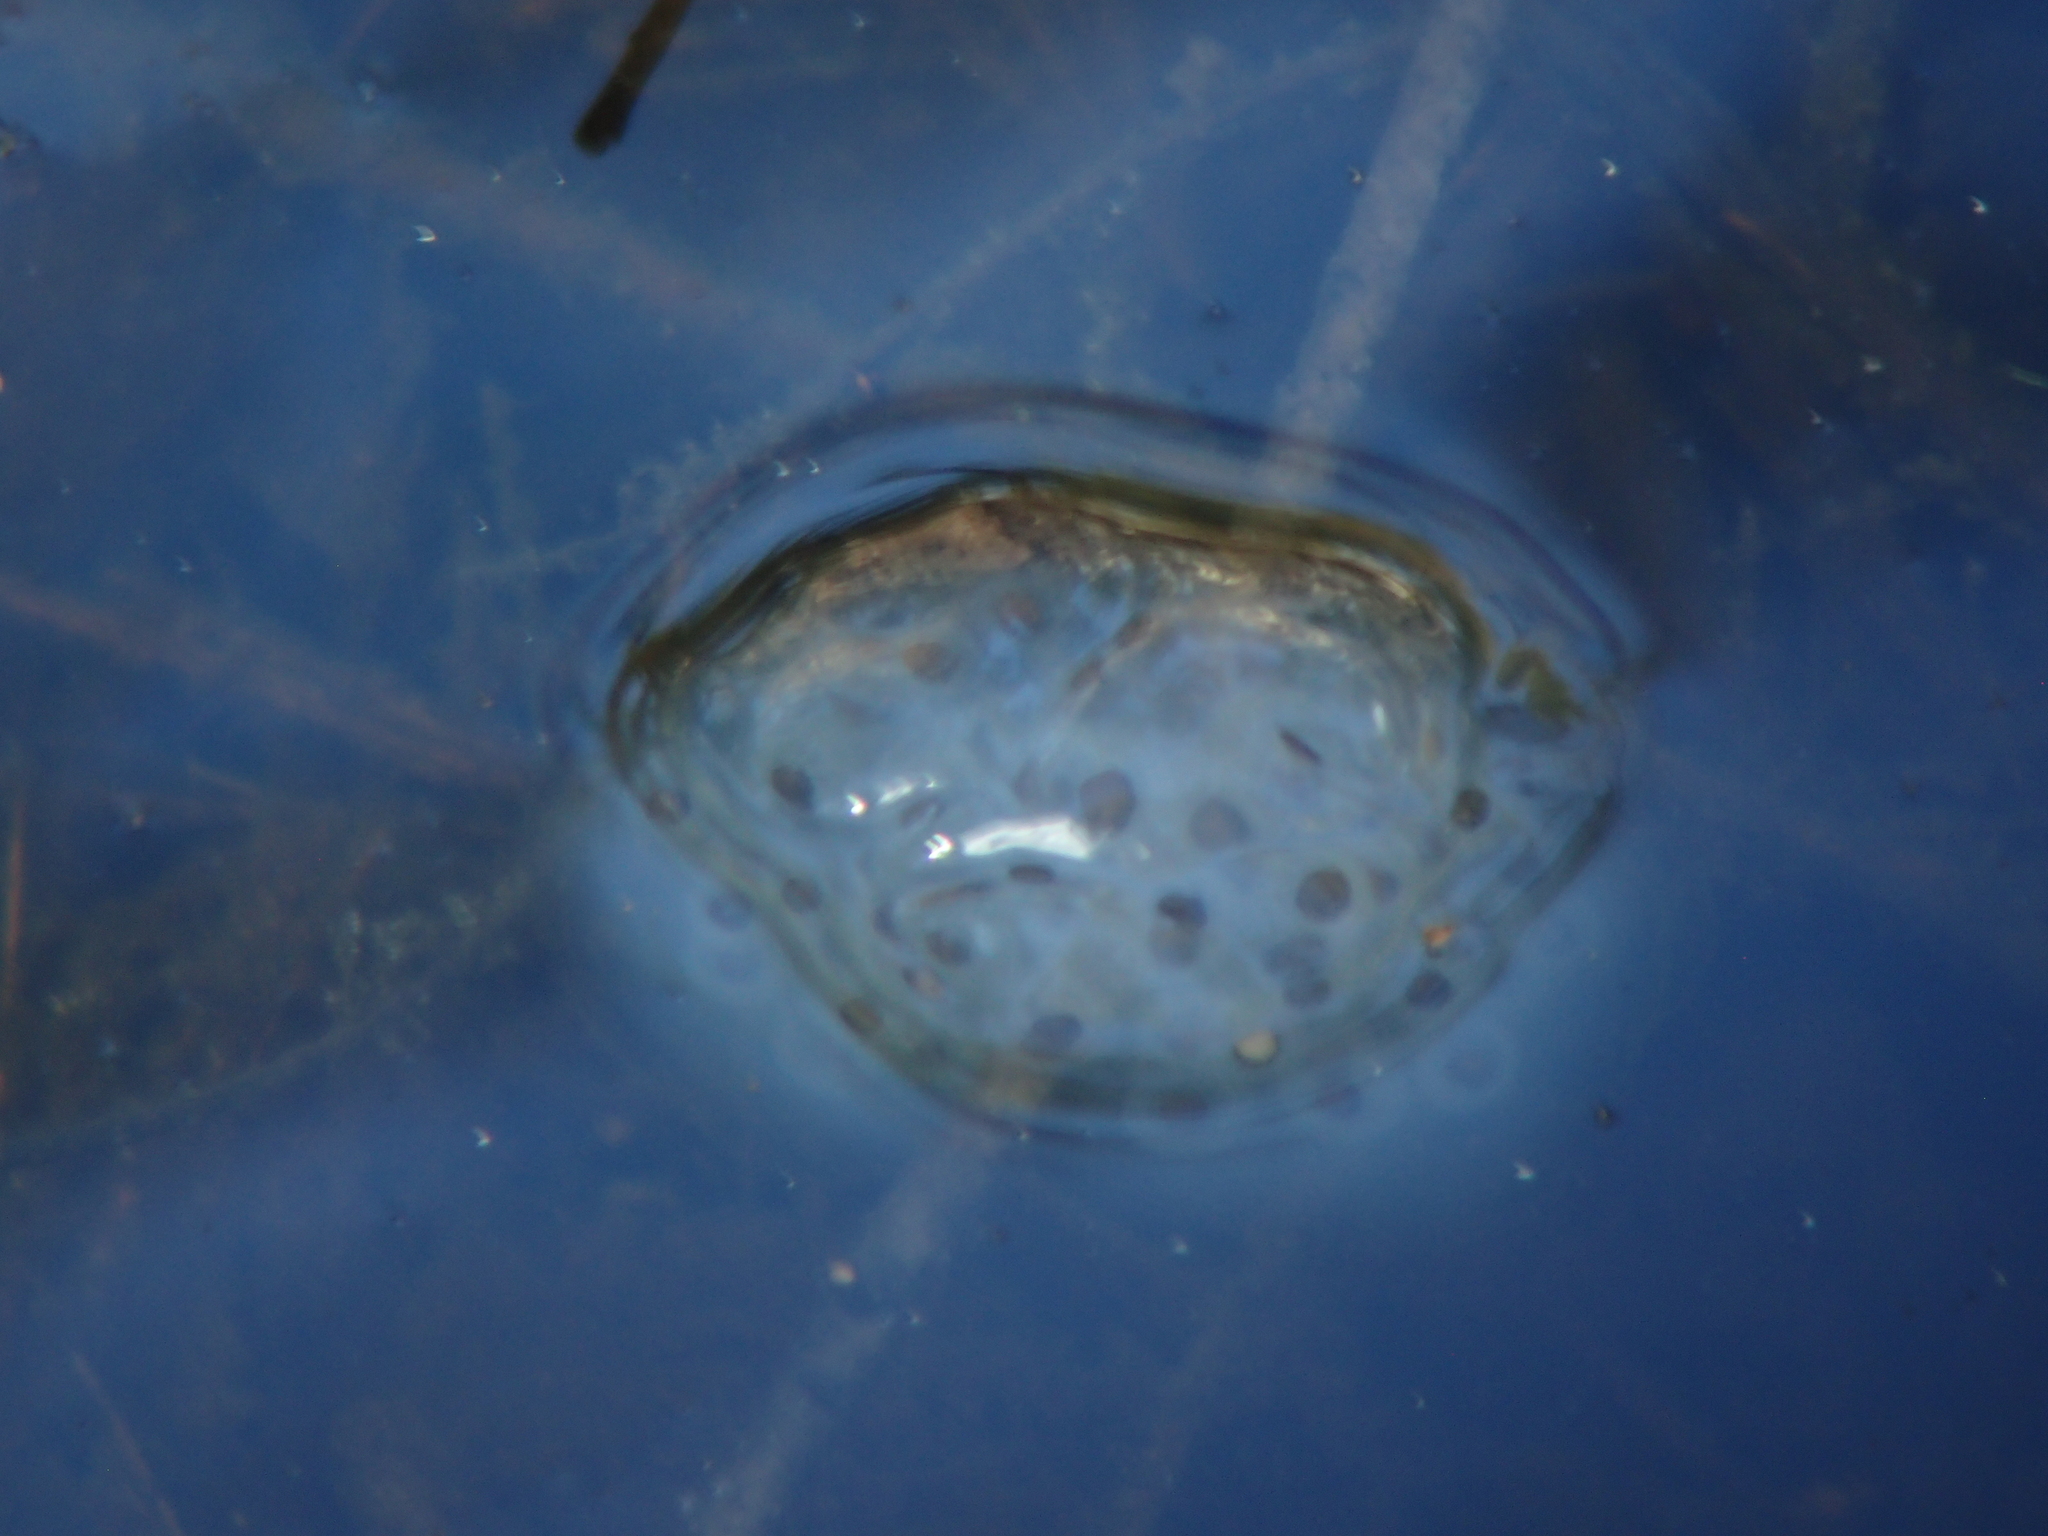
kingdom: Animalia
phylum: Chordata
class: Amphibia
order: Caudata
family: Ambystomatidae
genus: Ambystoma
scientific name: Ambystoma maculatum
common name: Spotted salamander
